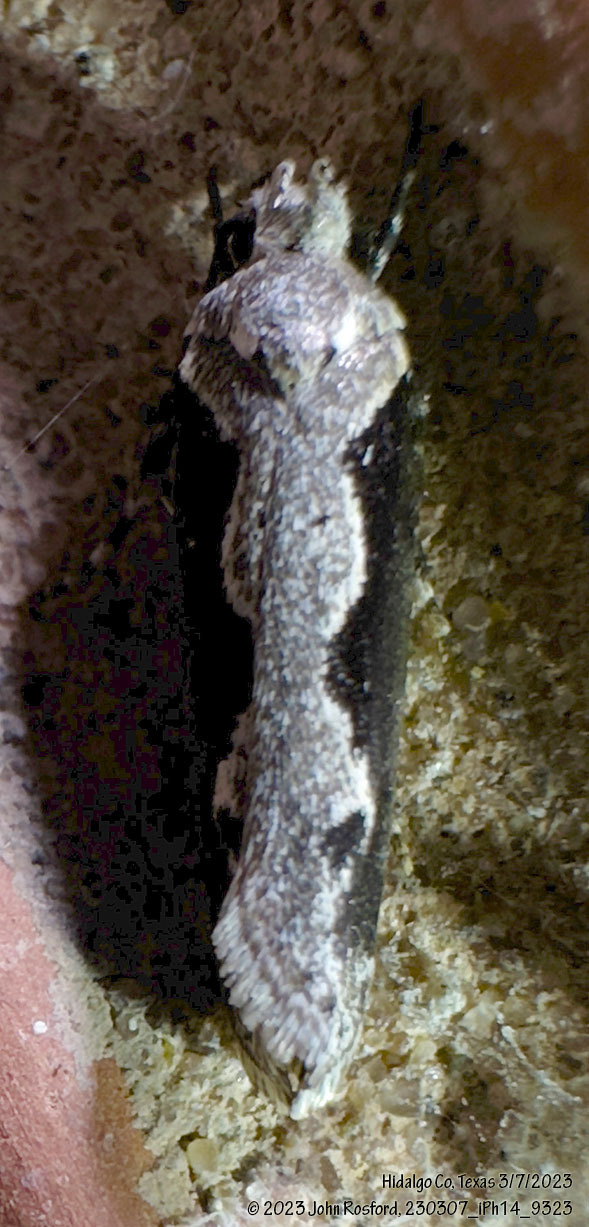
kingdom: Animalia
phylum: Arthropoda
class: Insecta
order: Lepidoptera
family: Ethmiidae
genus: Ethmia
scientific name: Ethmia semiombra
